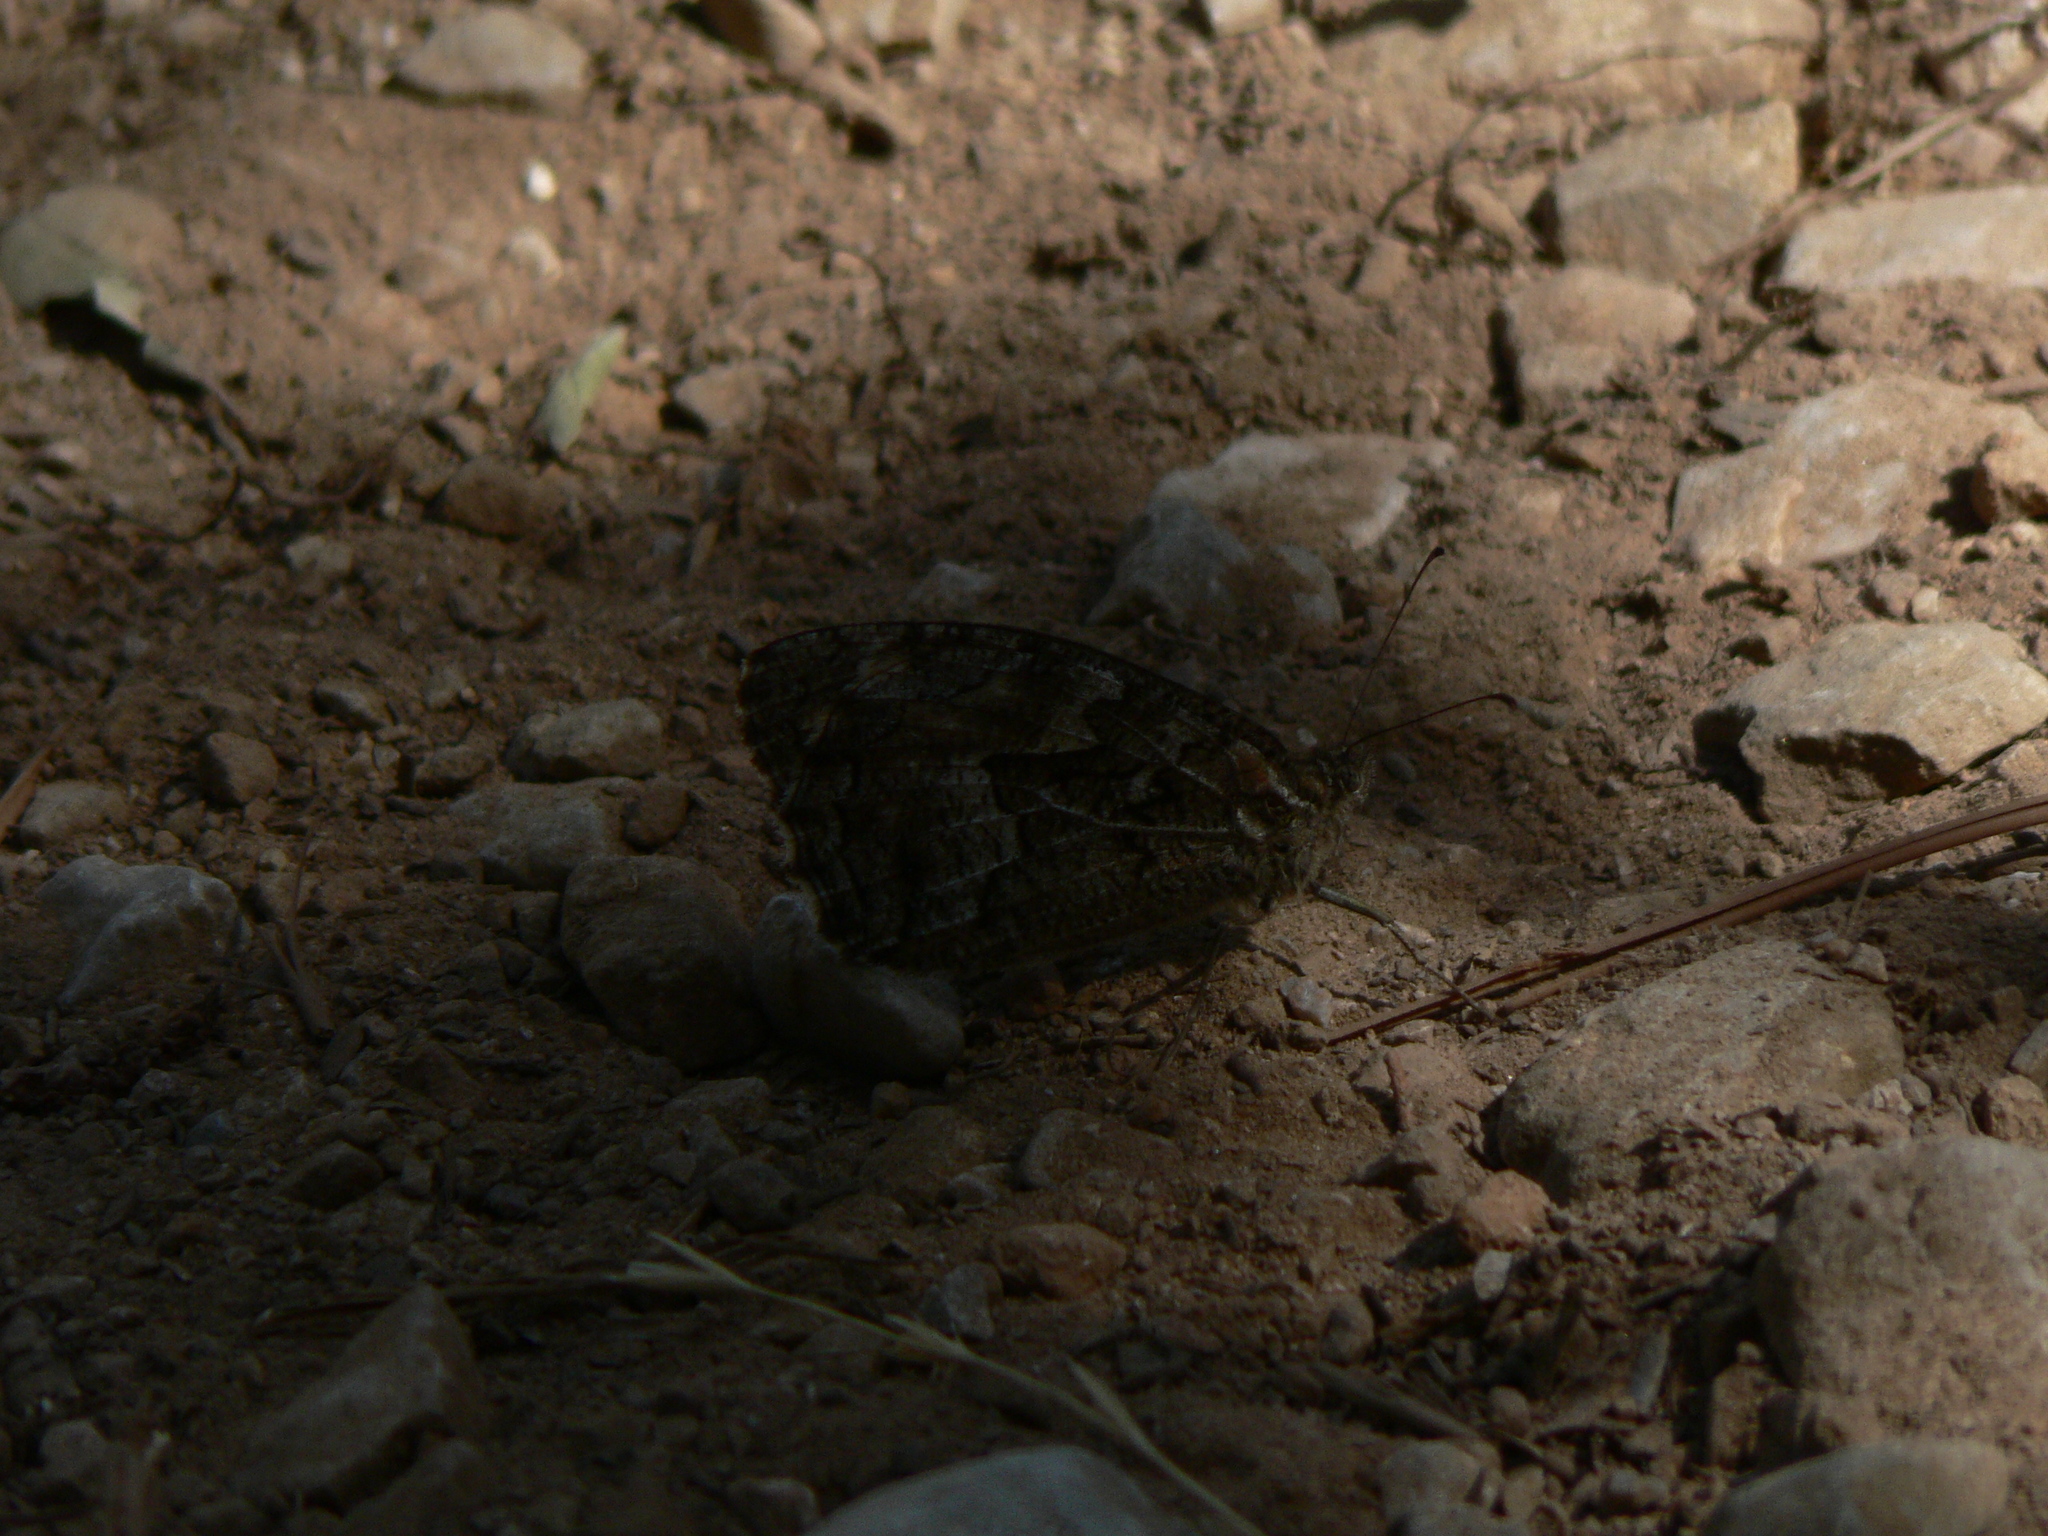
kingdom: Animalia
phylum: Arthropoda
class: Insecta
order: Lepidoptera
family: Nymphalidae
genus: Hipparchia
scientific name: Hipparchia semele
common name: Grayling
